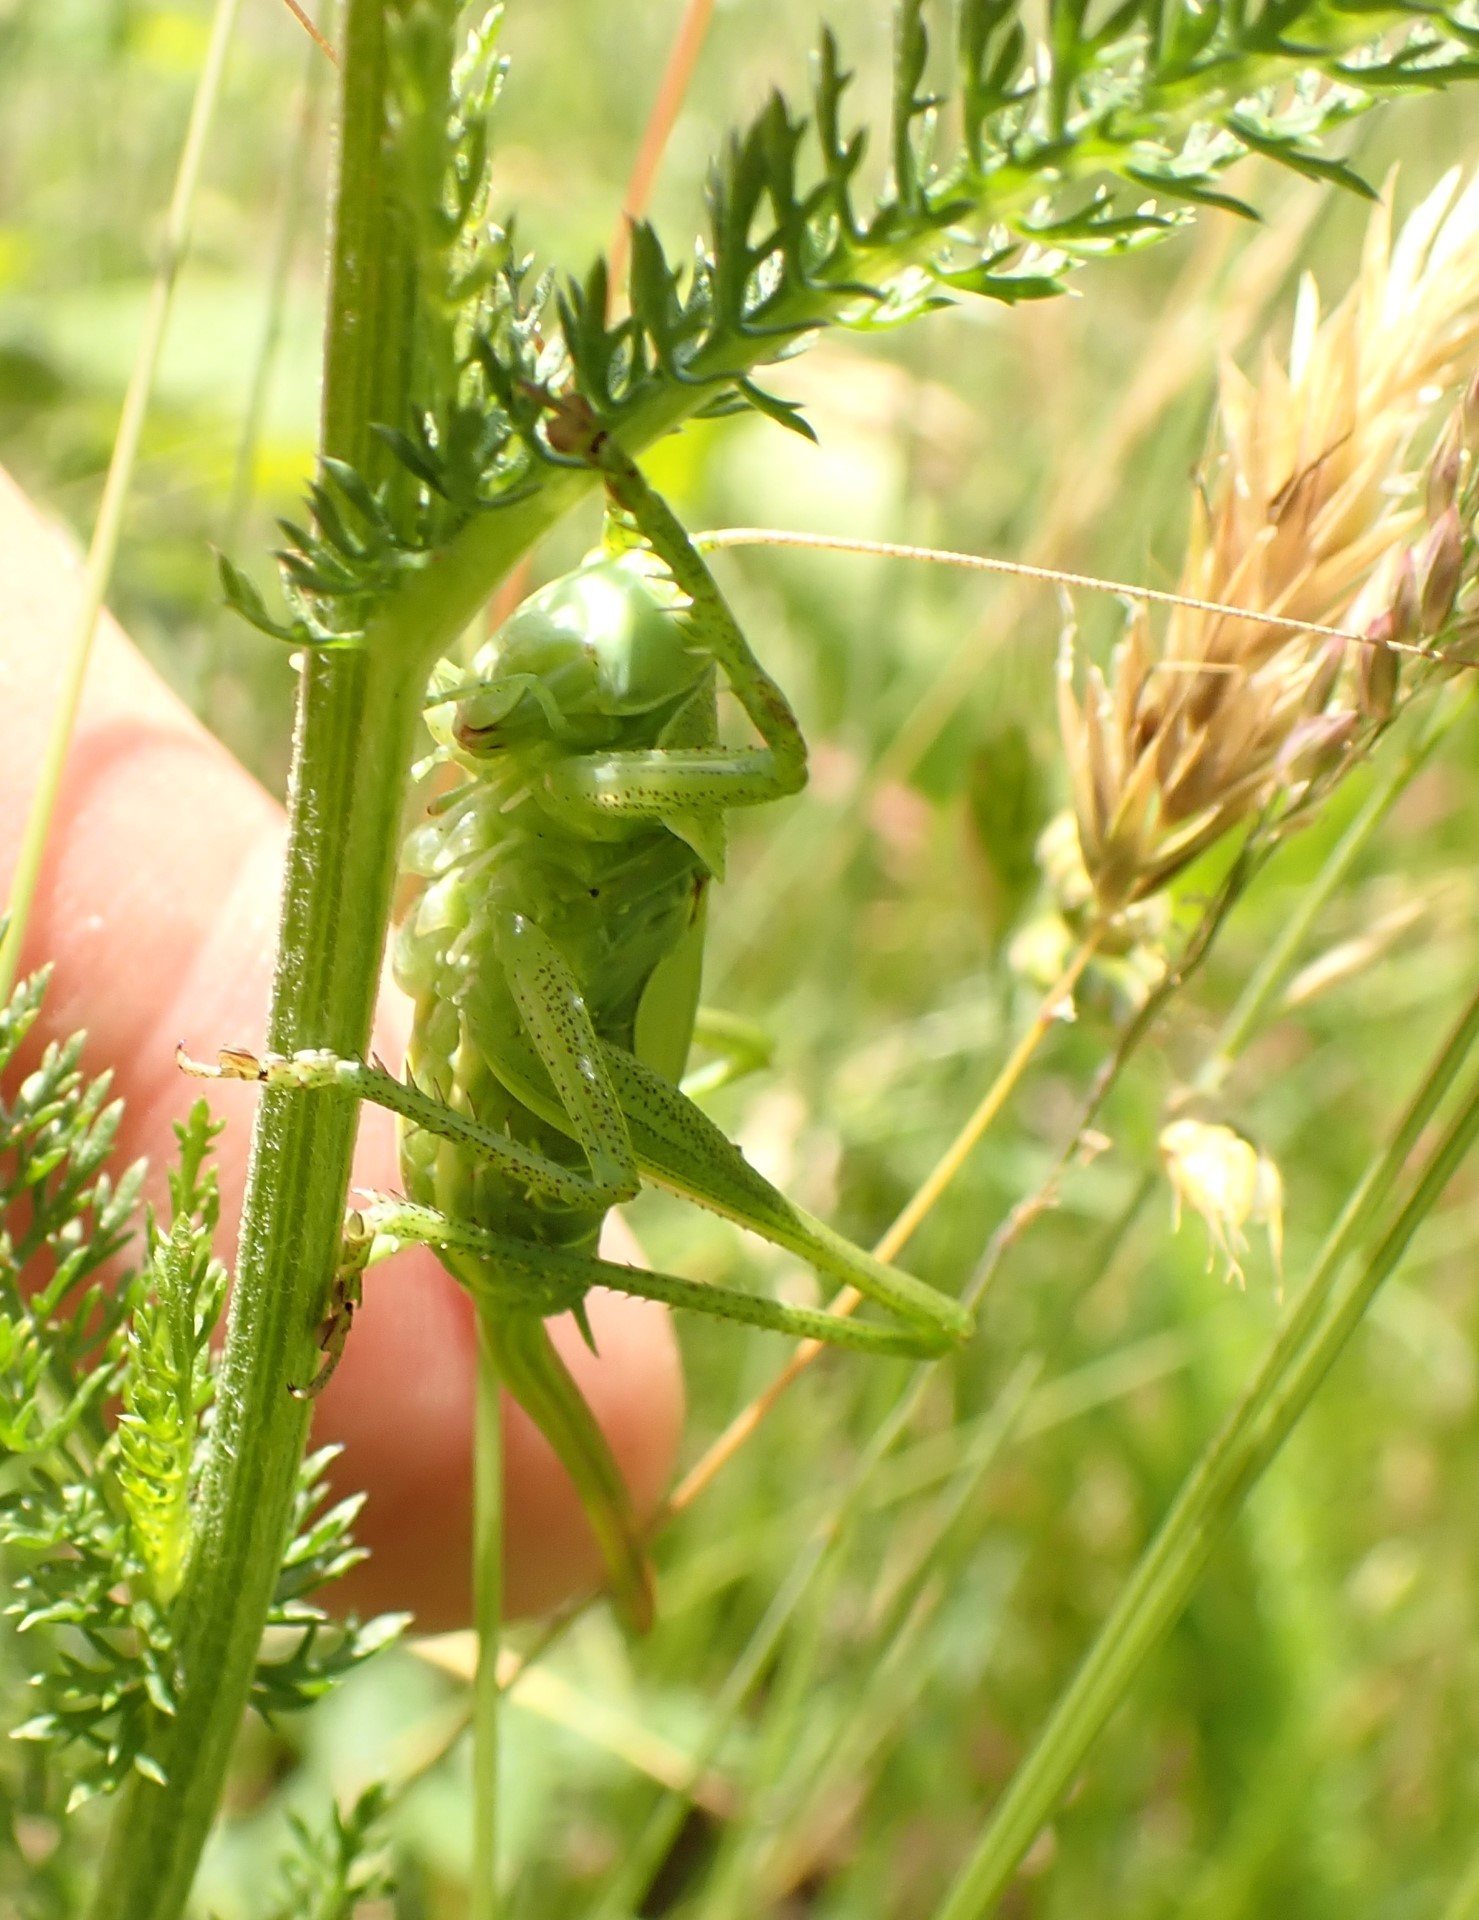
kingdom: Animalia
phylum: Arthropoda
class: Insecta
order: Orthoptera
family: Tettigoniidae
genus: Tettigonia
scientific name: Tettigonia viridissima
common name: Great green bush-cricket
